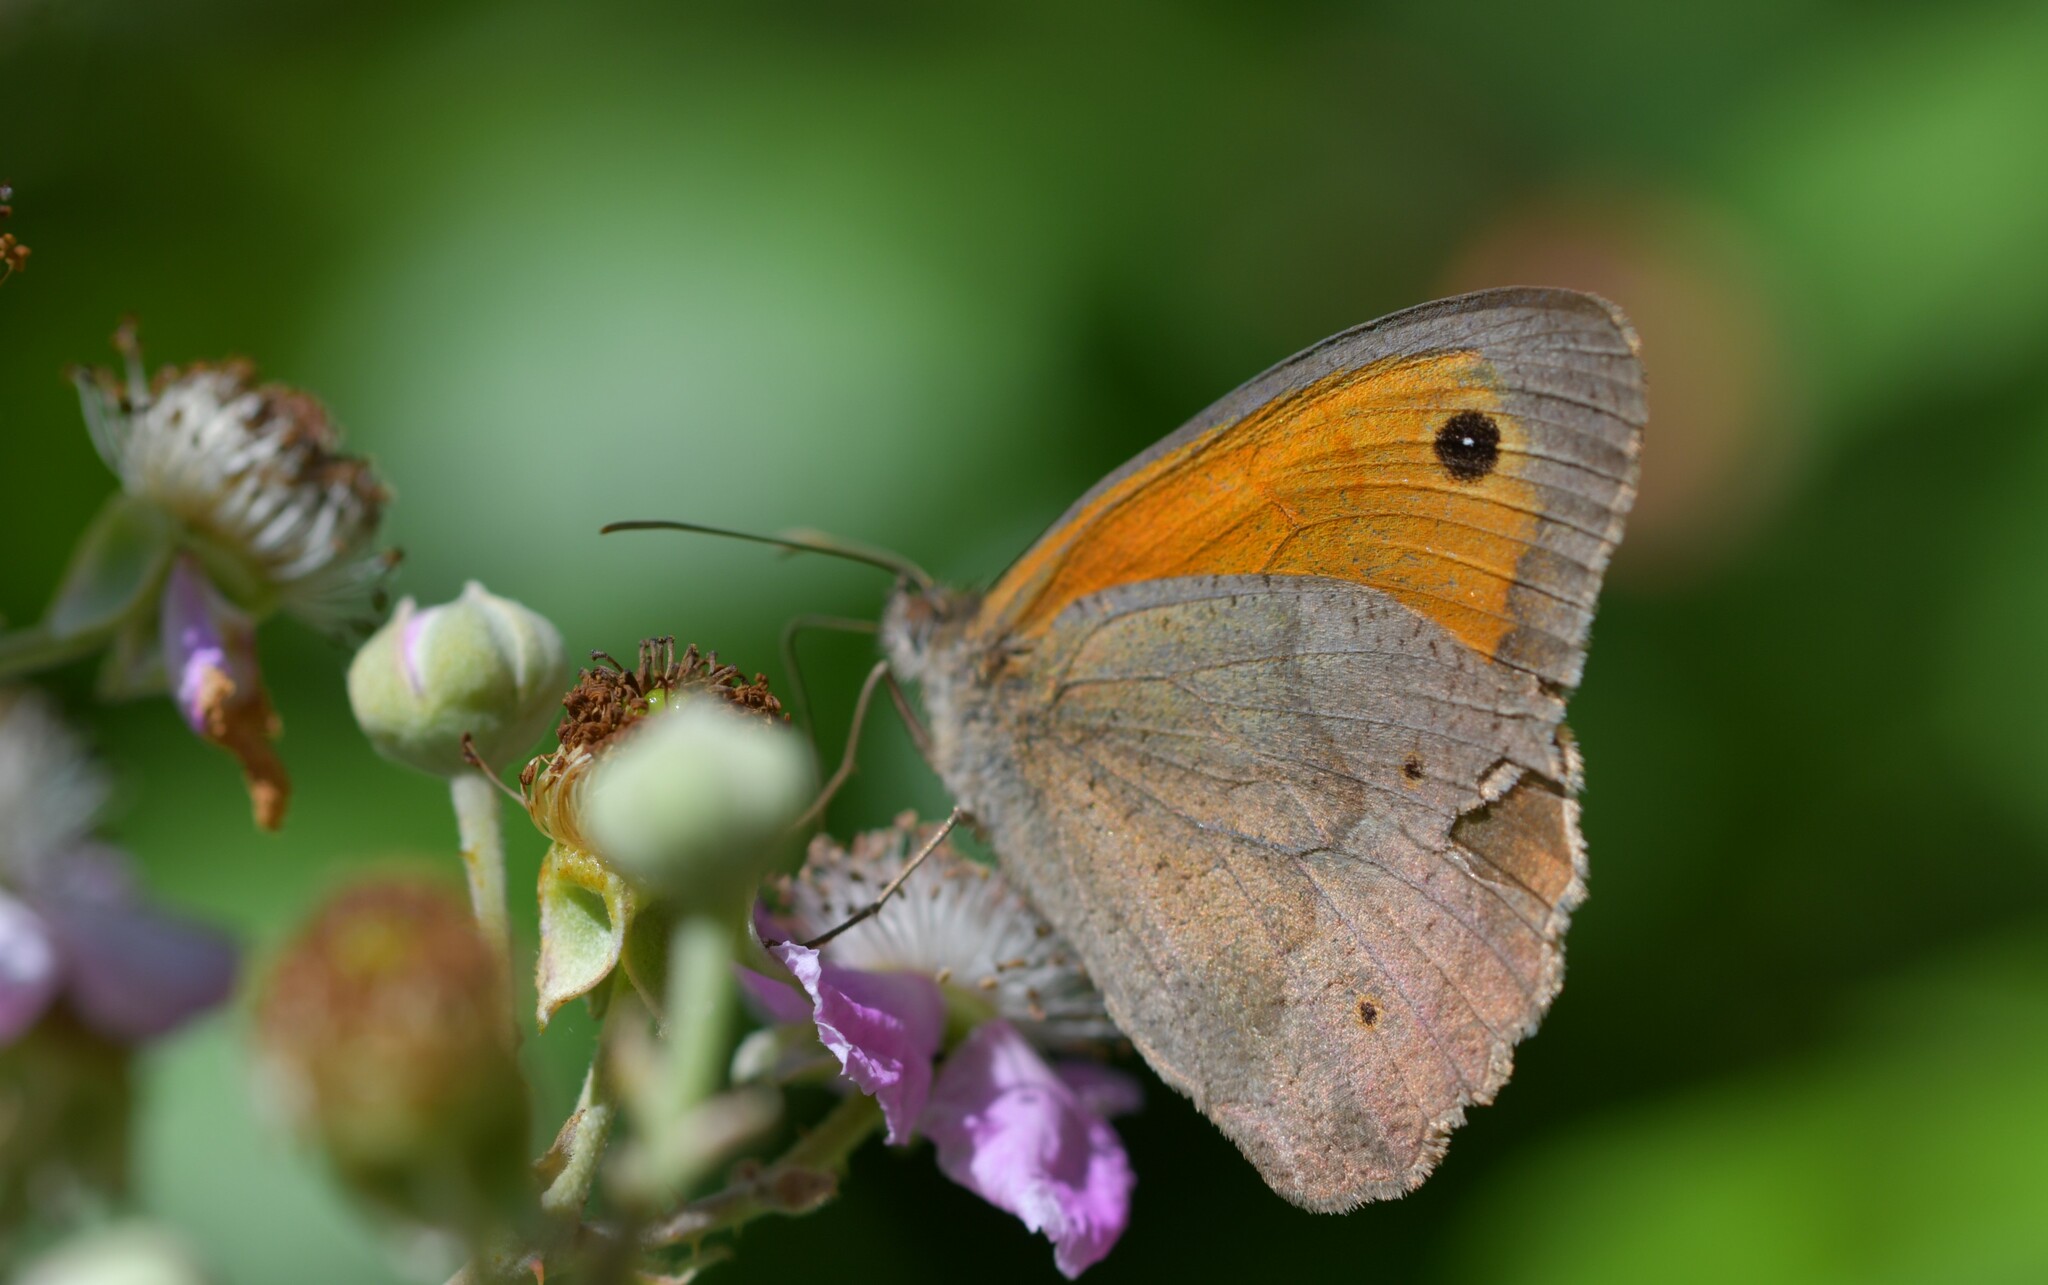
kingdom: Animalia
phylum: Arthropoda
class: Insecta
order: Lepidoptera
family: Nymphalidae
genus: Maniola
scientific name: Maniola jurtina
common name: Meadow brown
